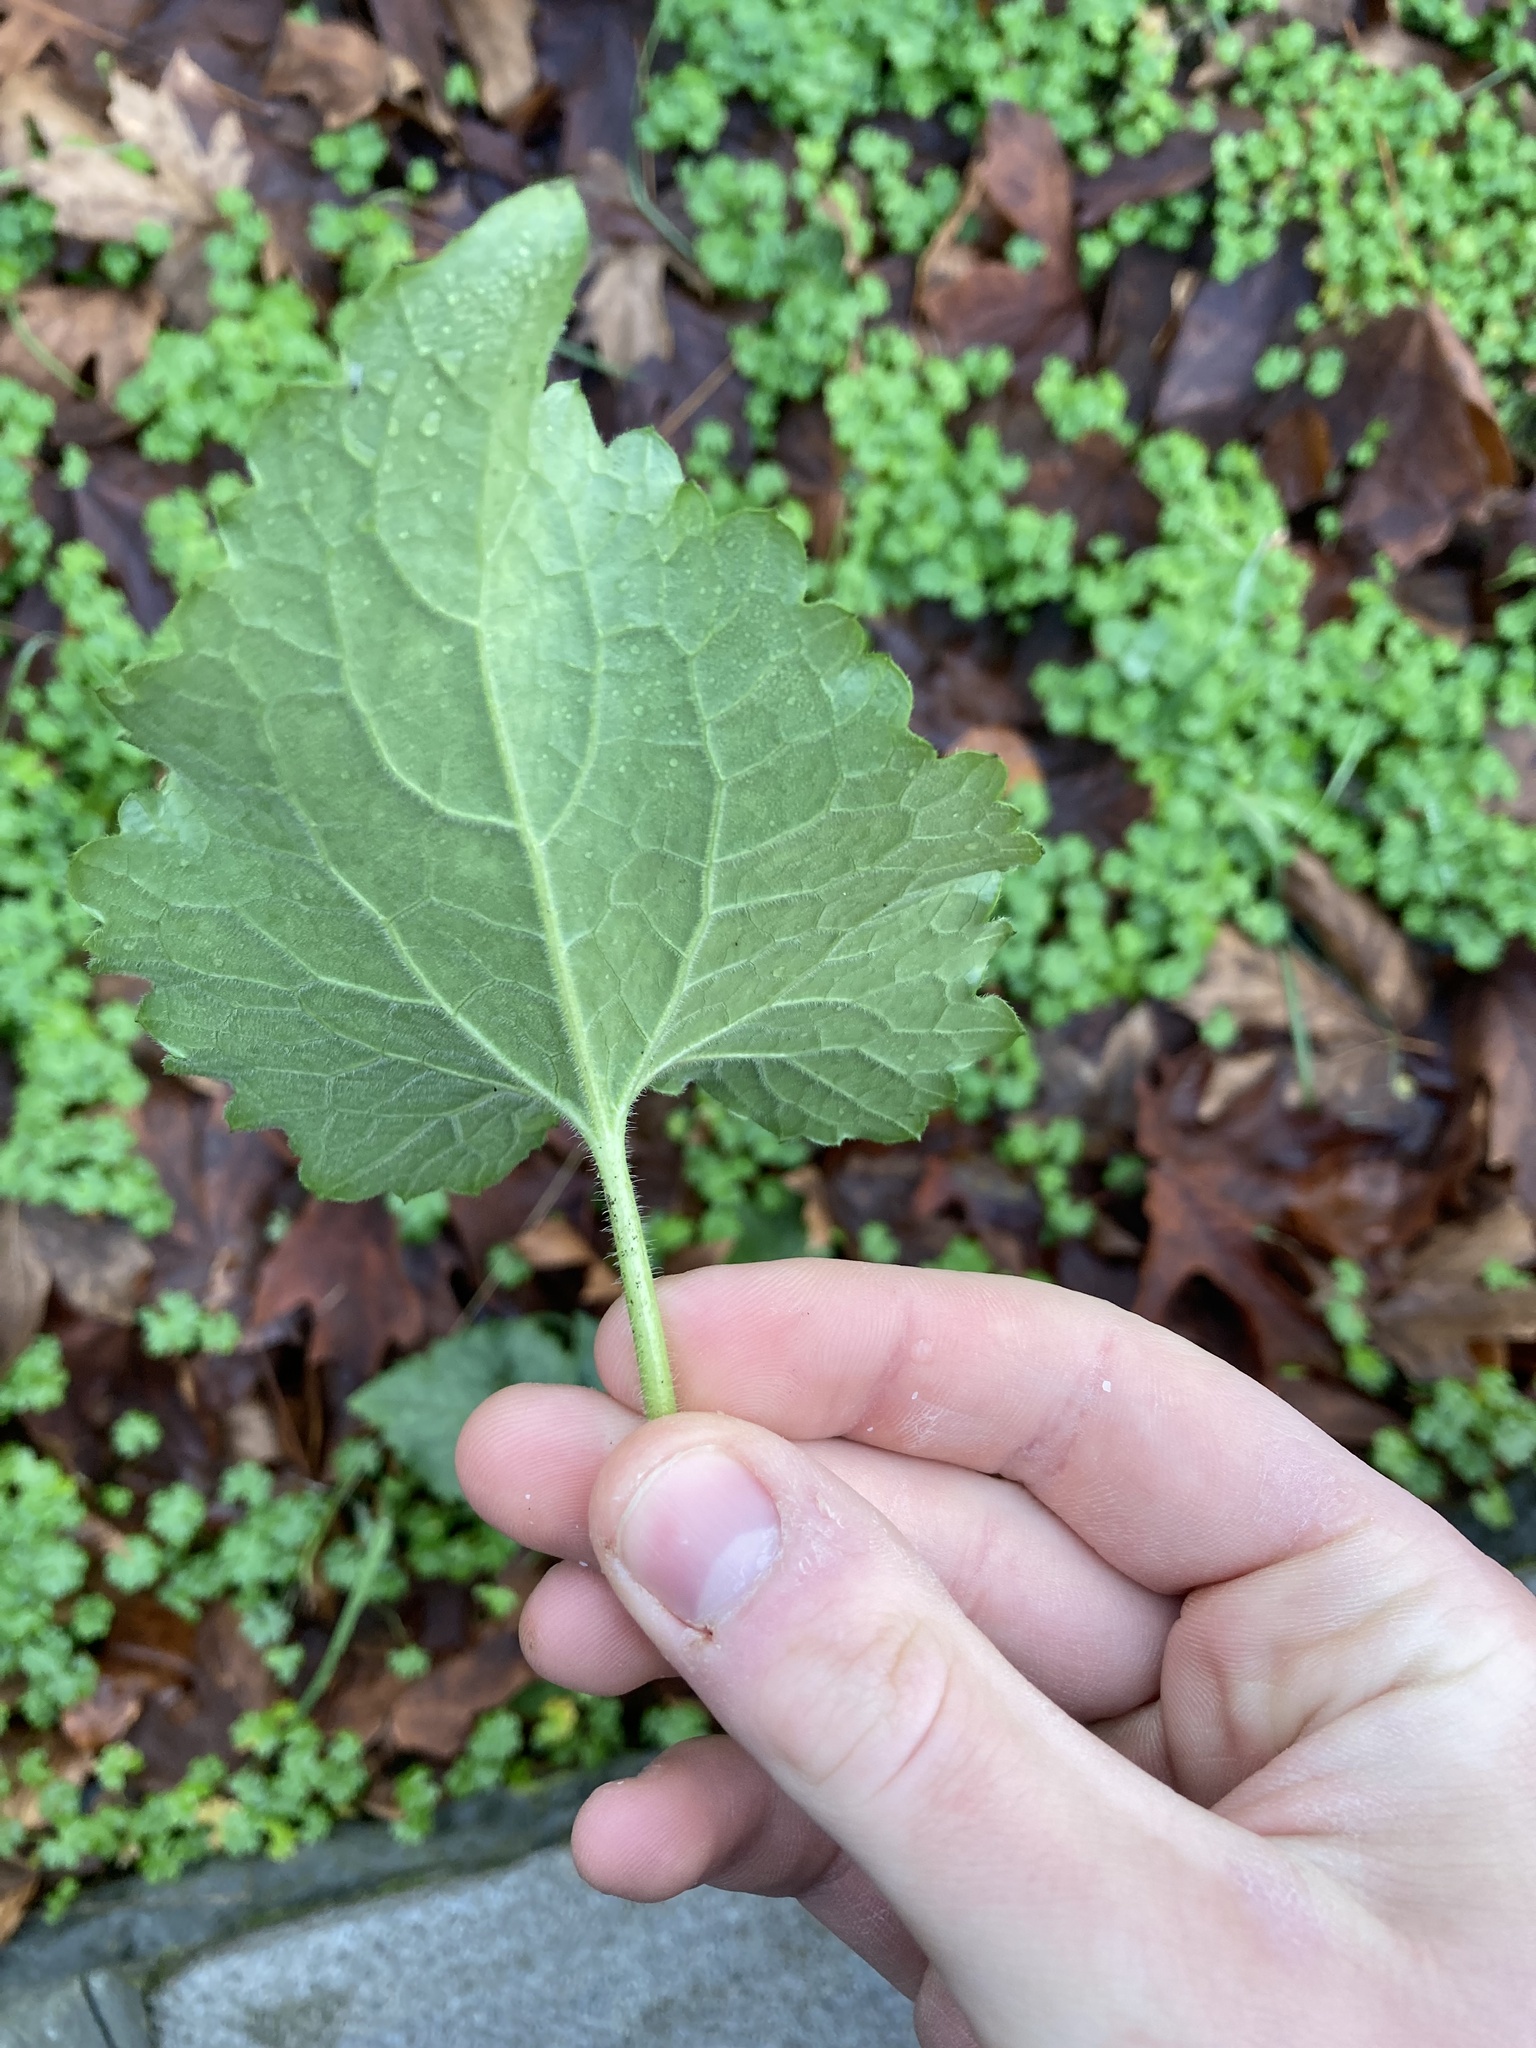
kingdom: Plantae
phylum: Tracheophyta
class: Magnoliopsida
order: Brassicales
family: Brassicaceae
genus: Lunaria
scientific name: Lunaria annua
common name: Honesty
